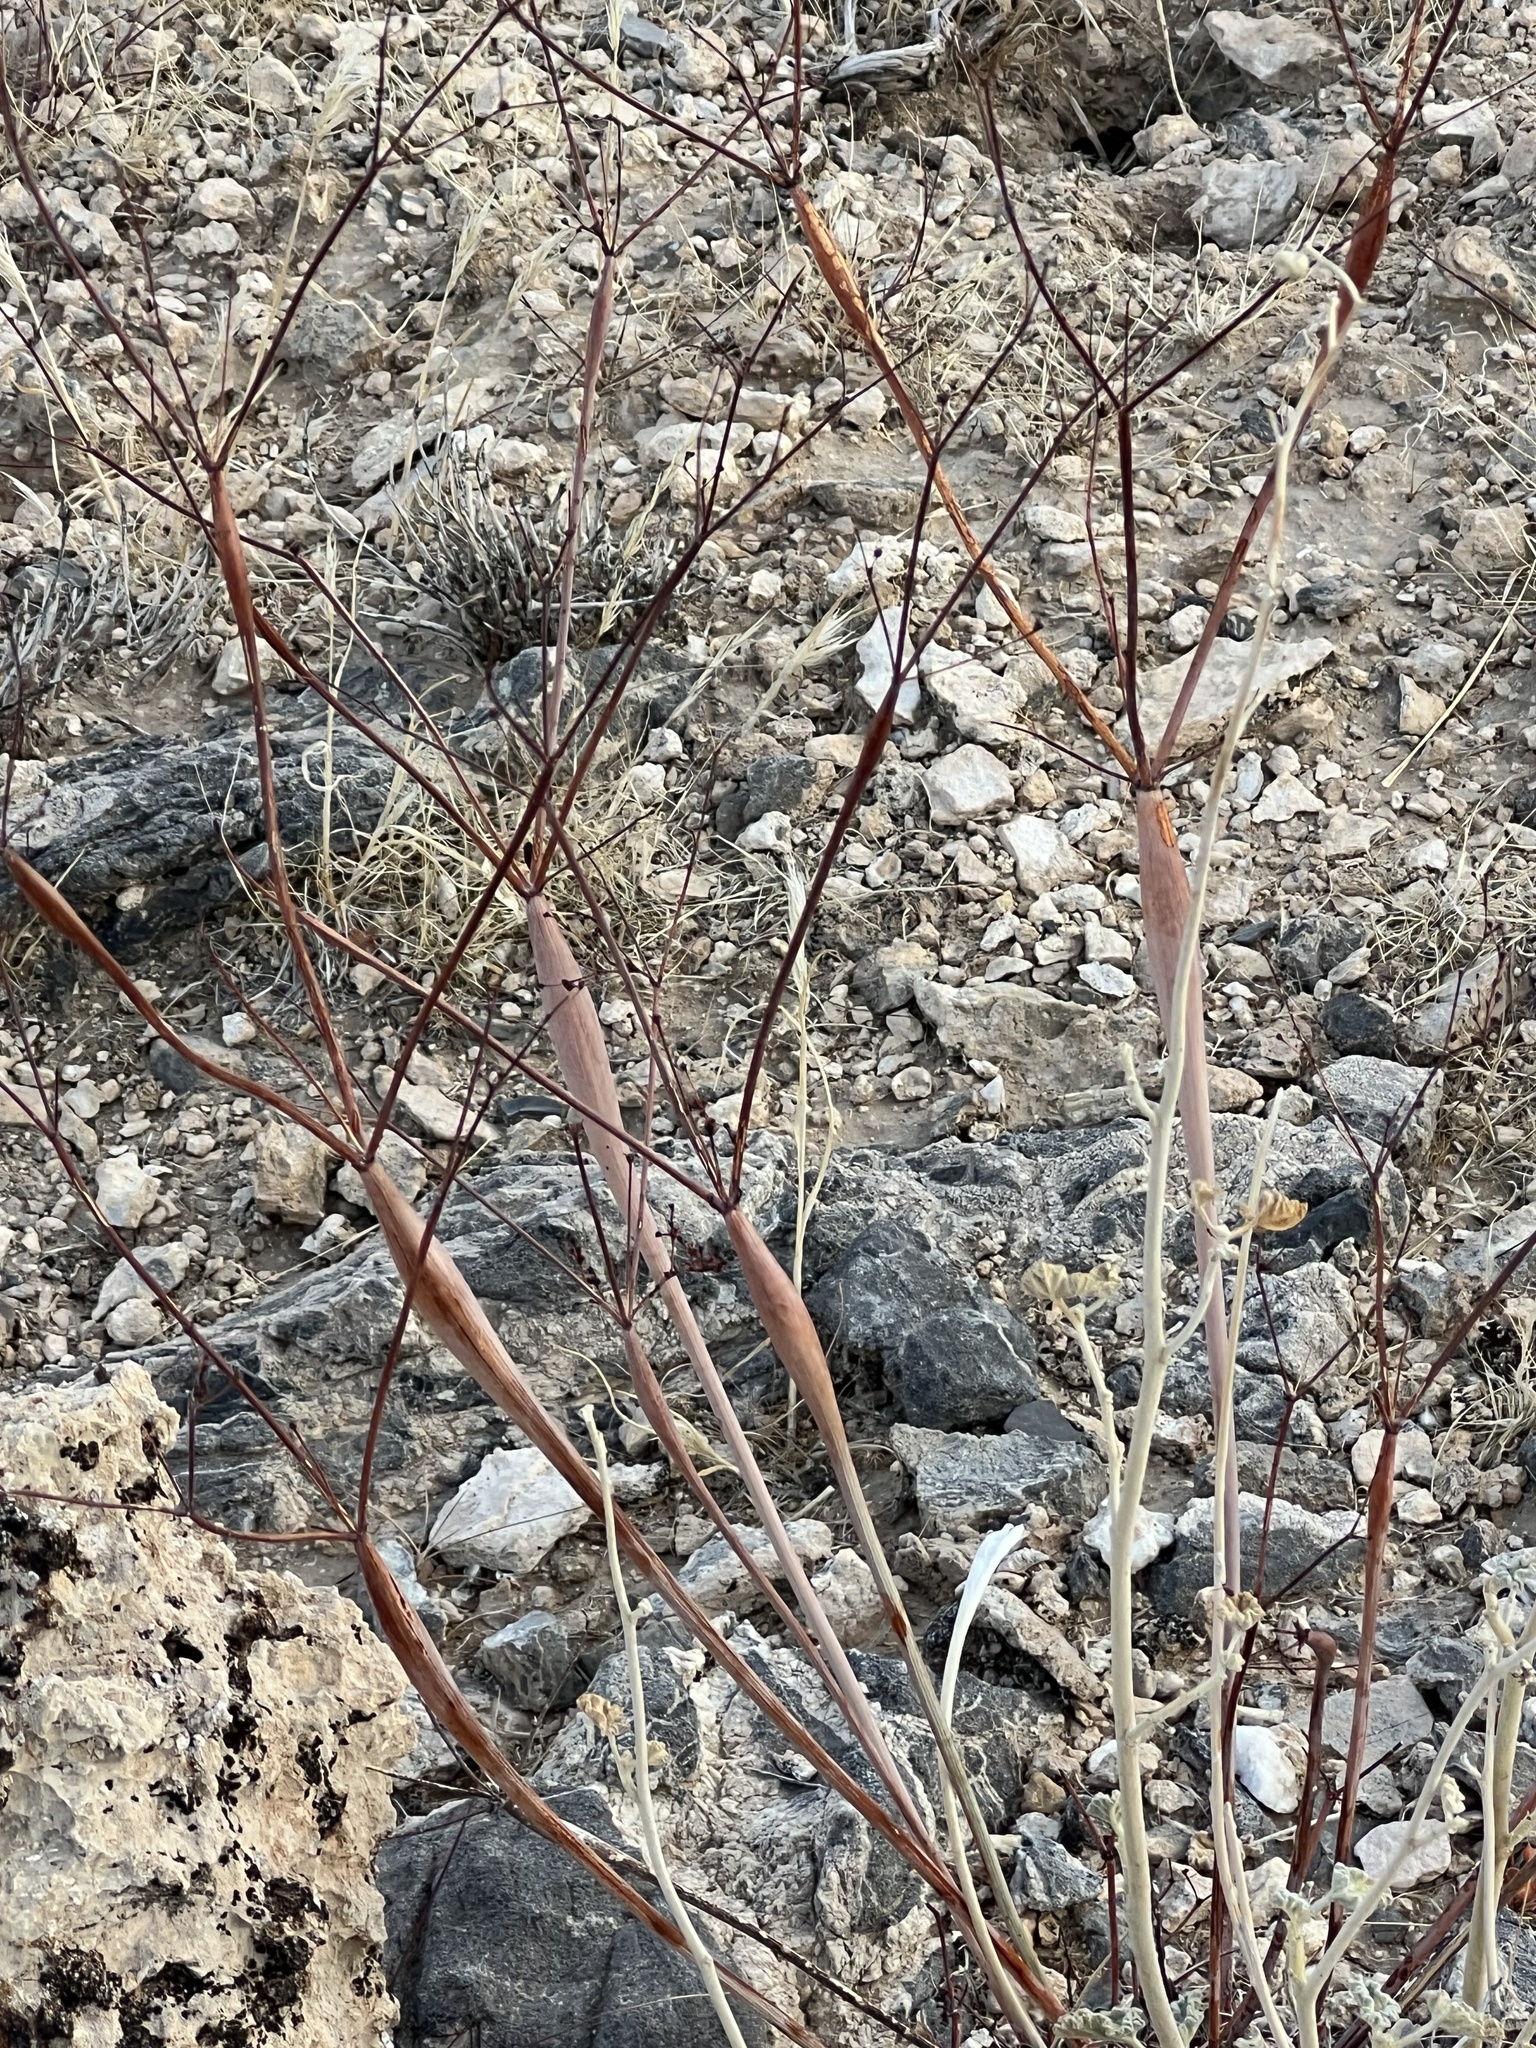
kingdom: Plantae
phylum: Tracheophyta
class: Magnoliopsida
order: Caryophyllales
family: Polygonaceae
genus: Eriogonum
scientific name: Eriogonum inflatum
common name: Desert trumpet
